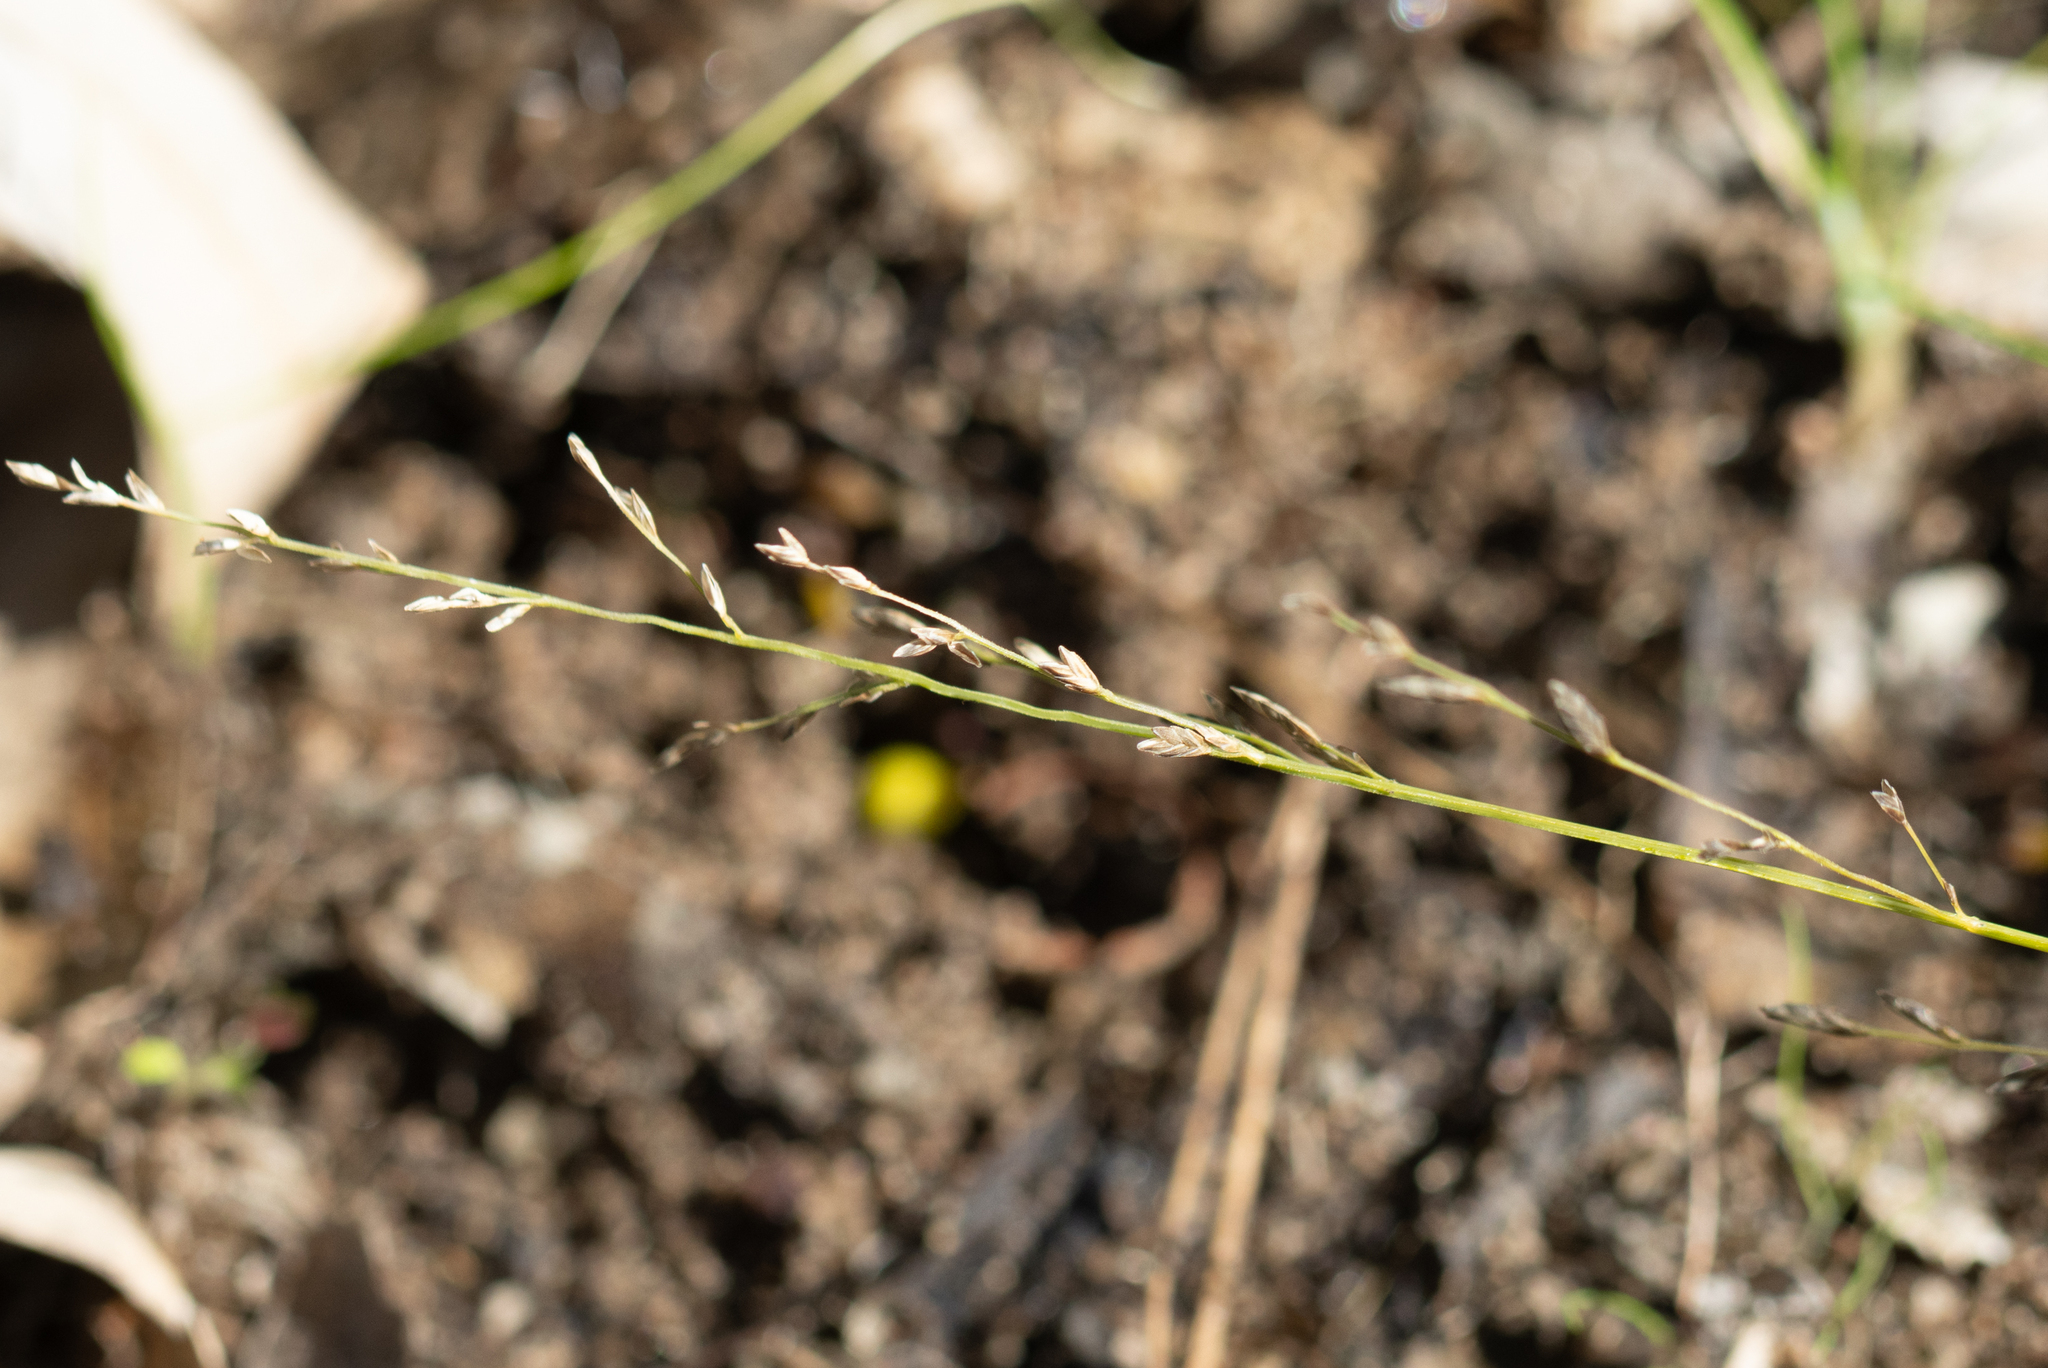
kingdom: Plantae
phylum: Tracheophyta
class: Liliopsida
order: Poales
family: Poaceae
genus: Eragrostis
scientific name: Eragrostis brownii
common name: Lovegrass
